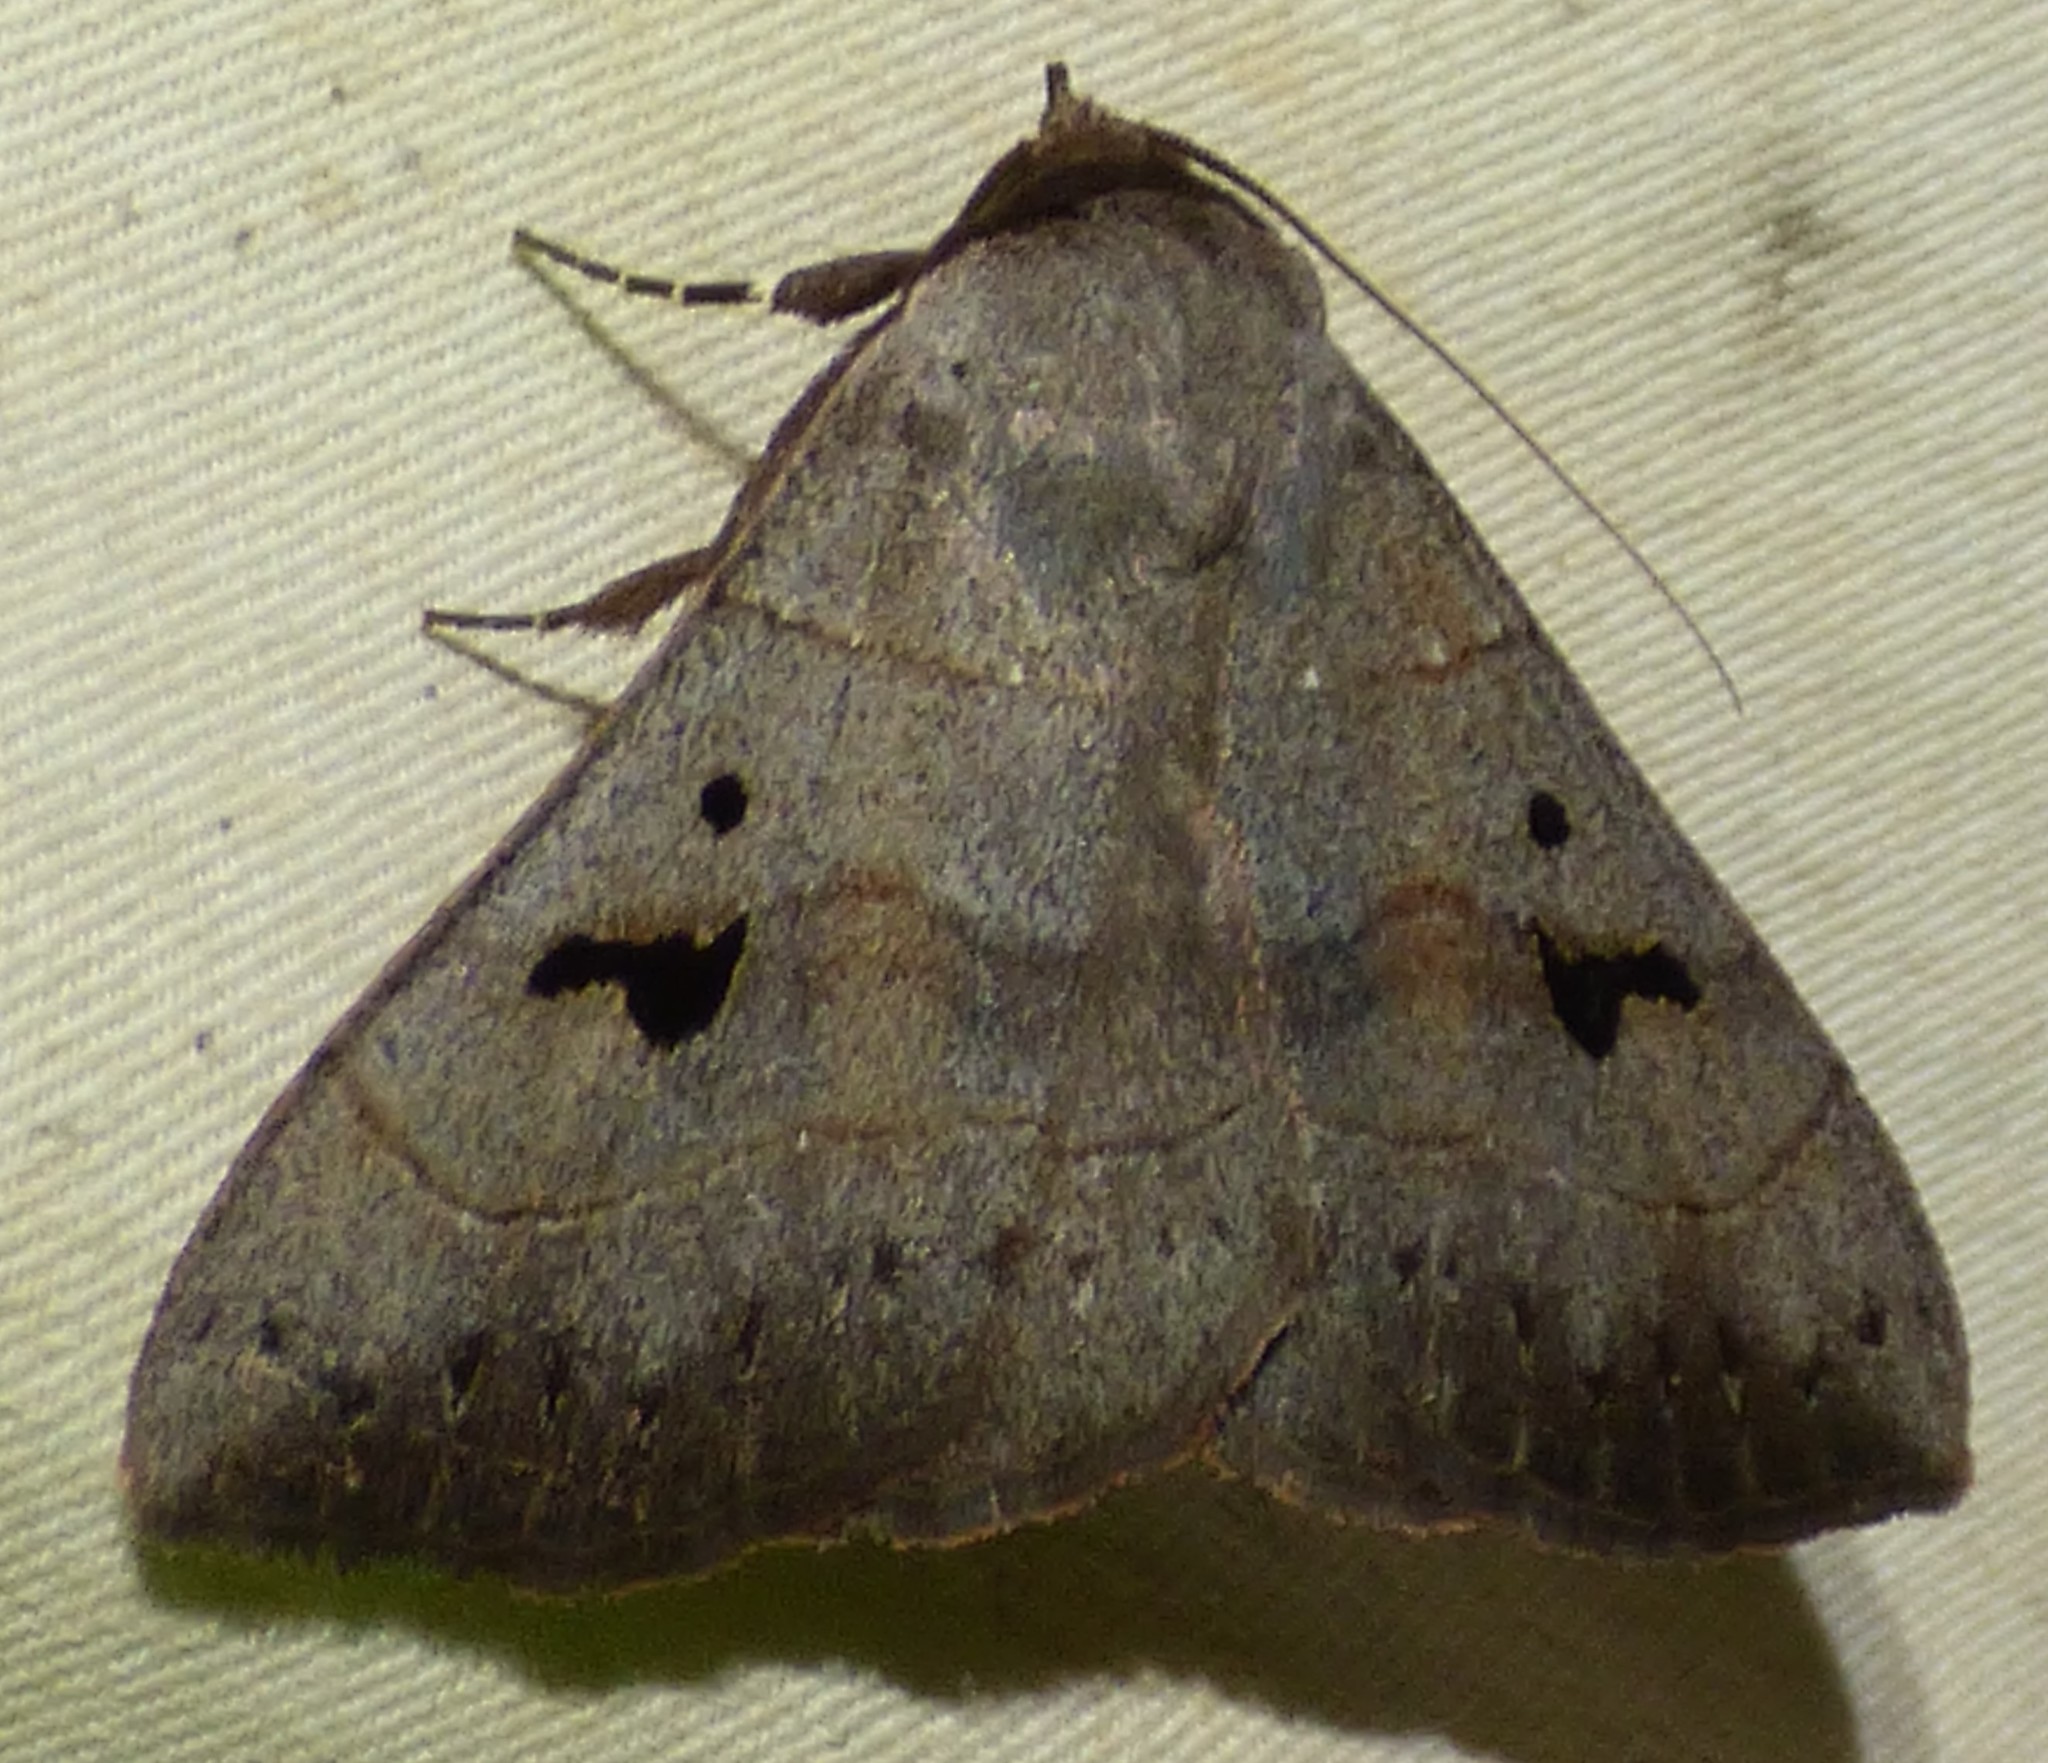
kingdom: Animalia
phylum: Arthropoda
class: Insecta
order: Lepidoptera
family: Erebidae
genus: Panopoda
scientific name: Panopoda carneicosta
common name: Brown panopoda moth
